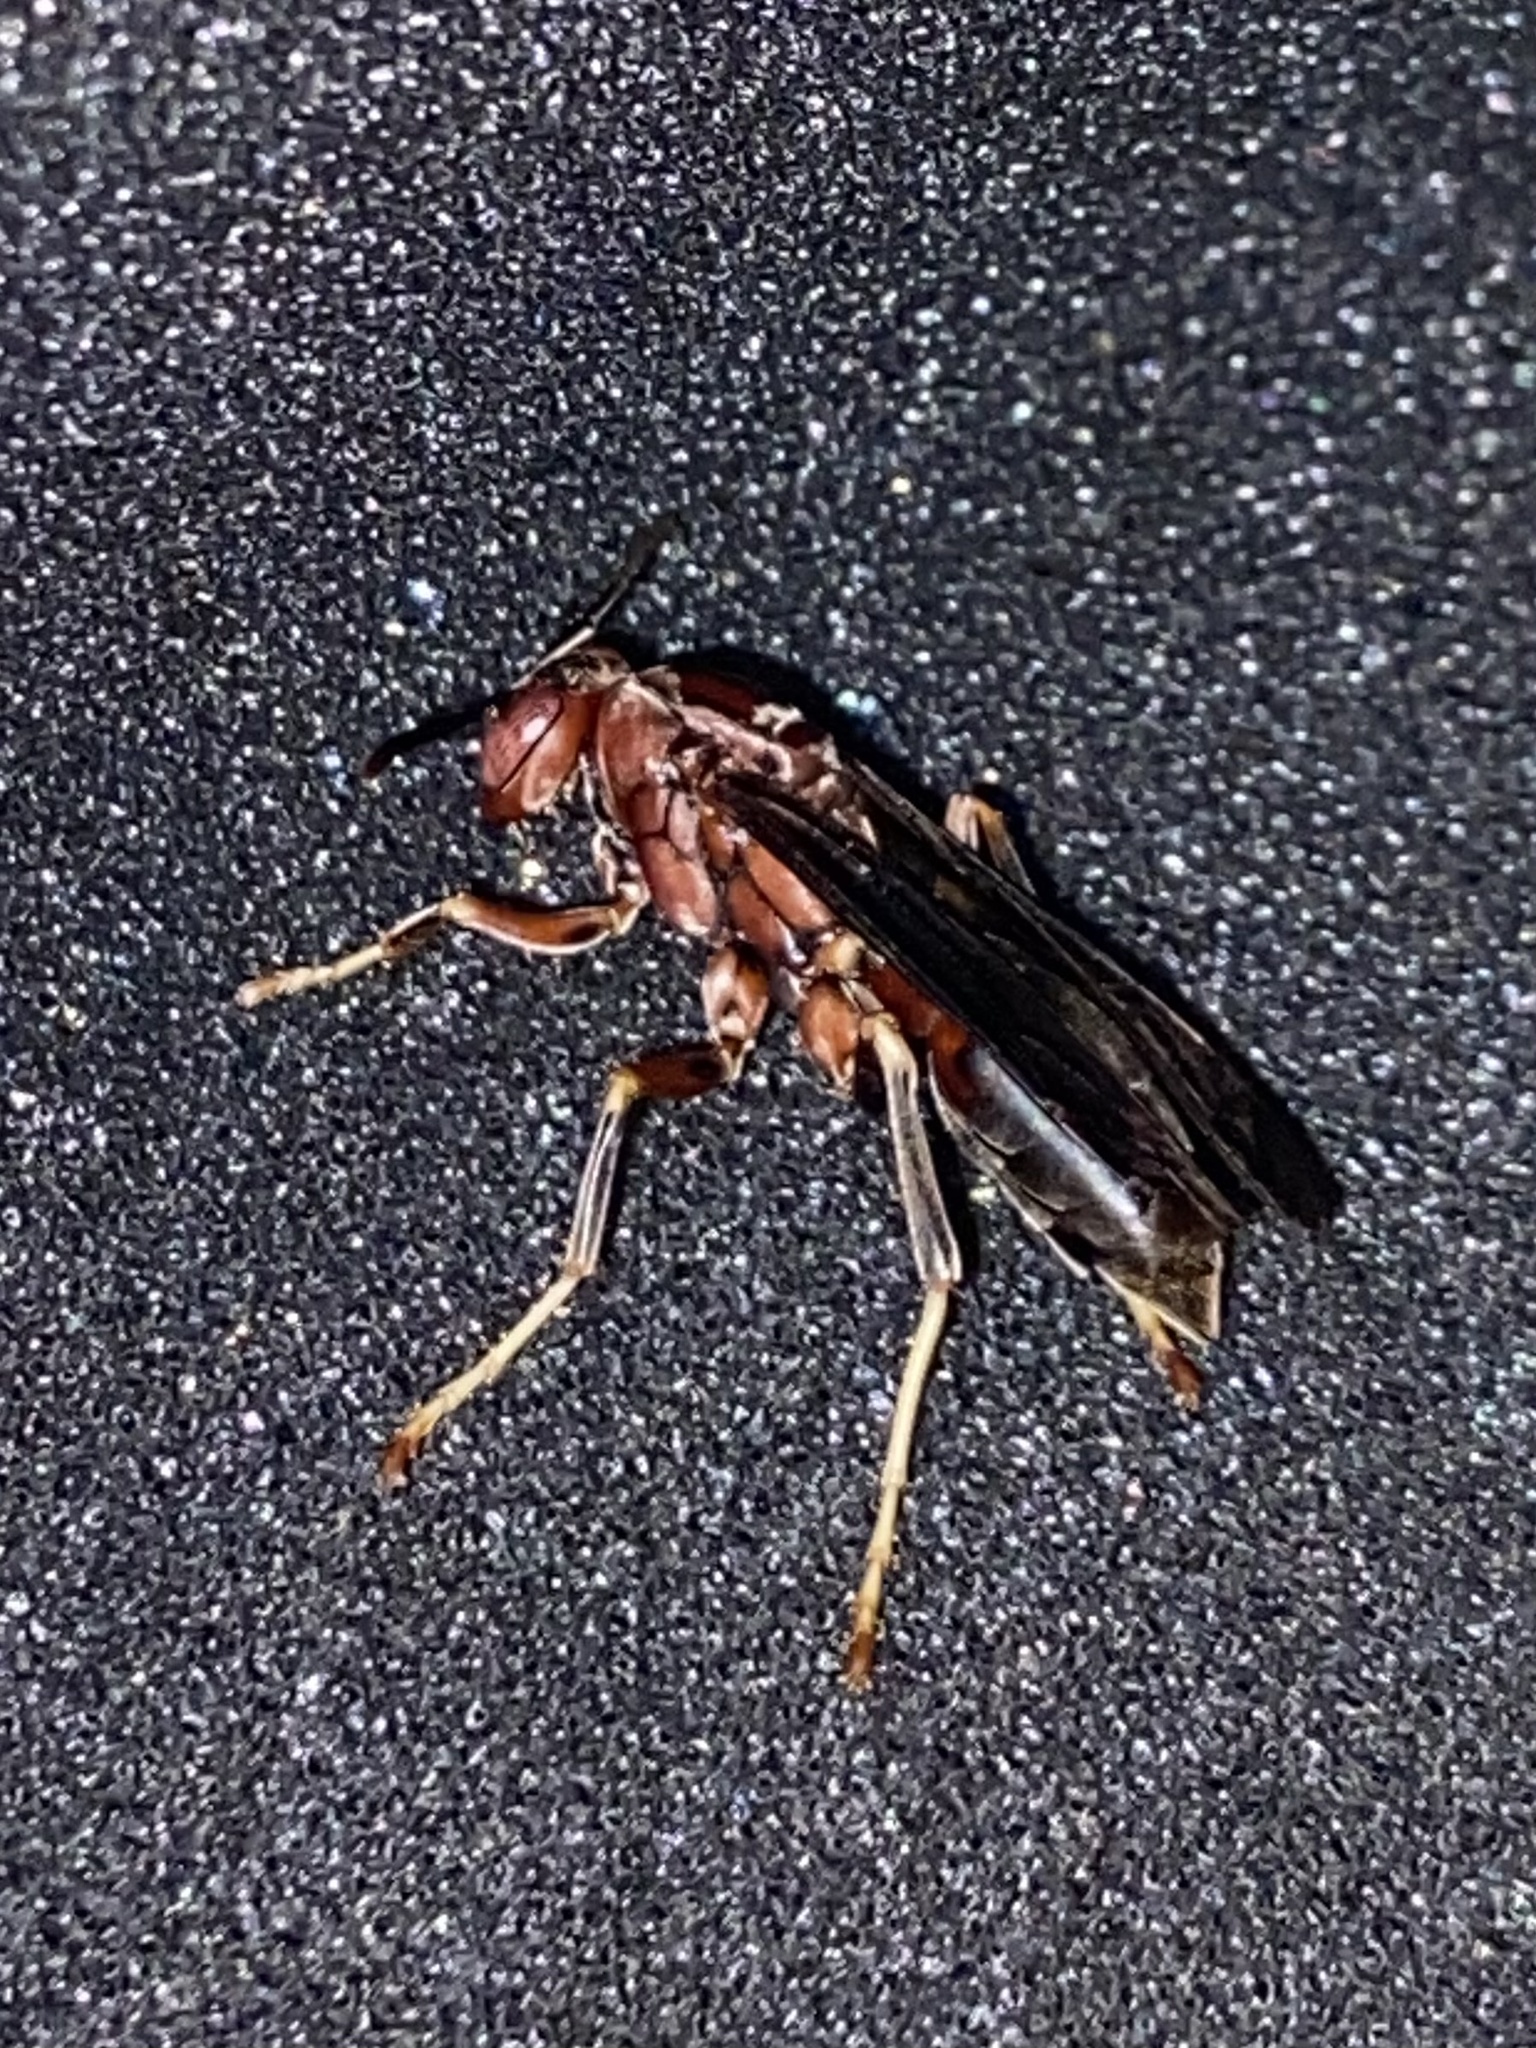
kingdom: Animalia
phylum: Arthropoda
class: Insecta
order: Hymenoptera
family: Eumenidae
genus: Polistes
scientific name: Polistes metricus
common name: Metric paper wasp
